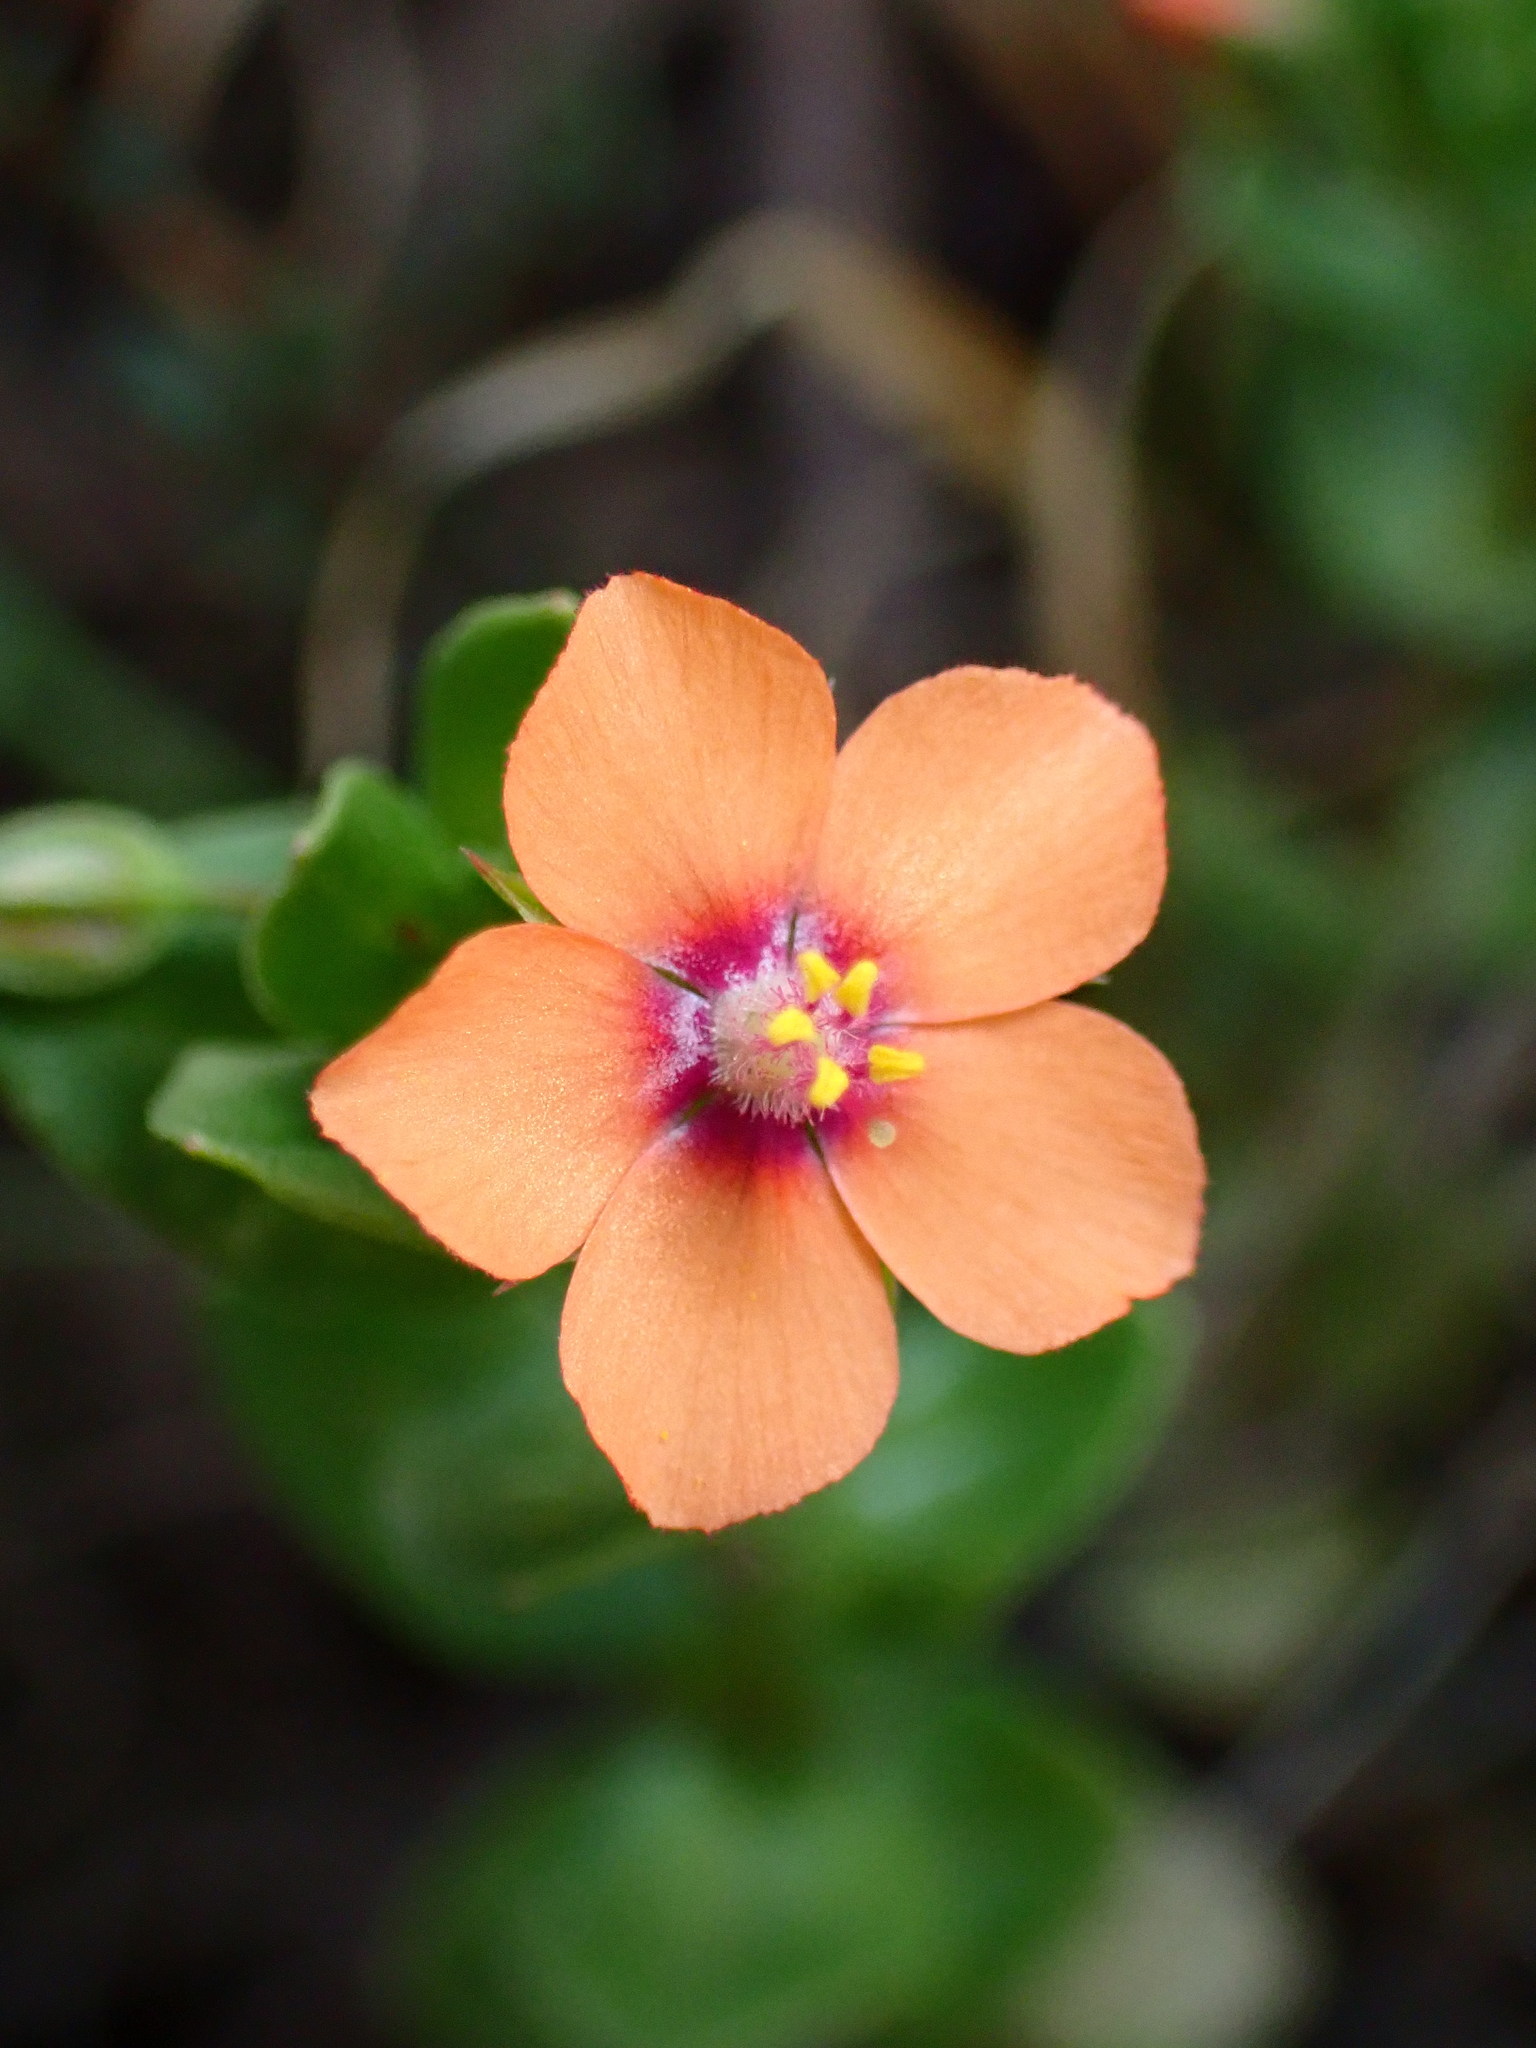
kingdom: Plantae
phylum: Tracheophyta
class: Magnoliopsida
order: Ericales
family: Primulaceae
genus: Lysimachia
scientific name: Lysimachia arvensis
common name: Scarlet pimpernel
